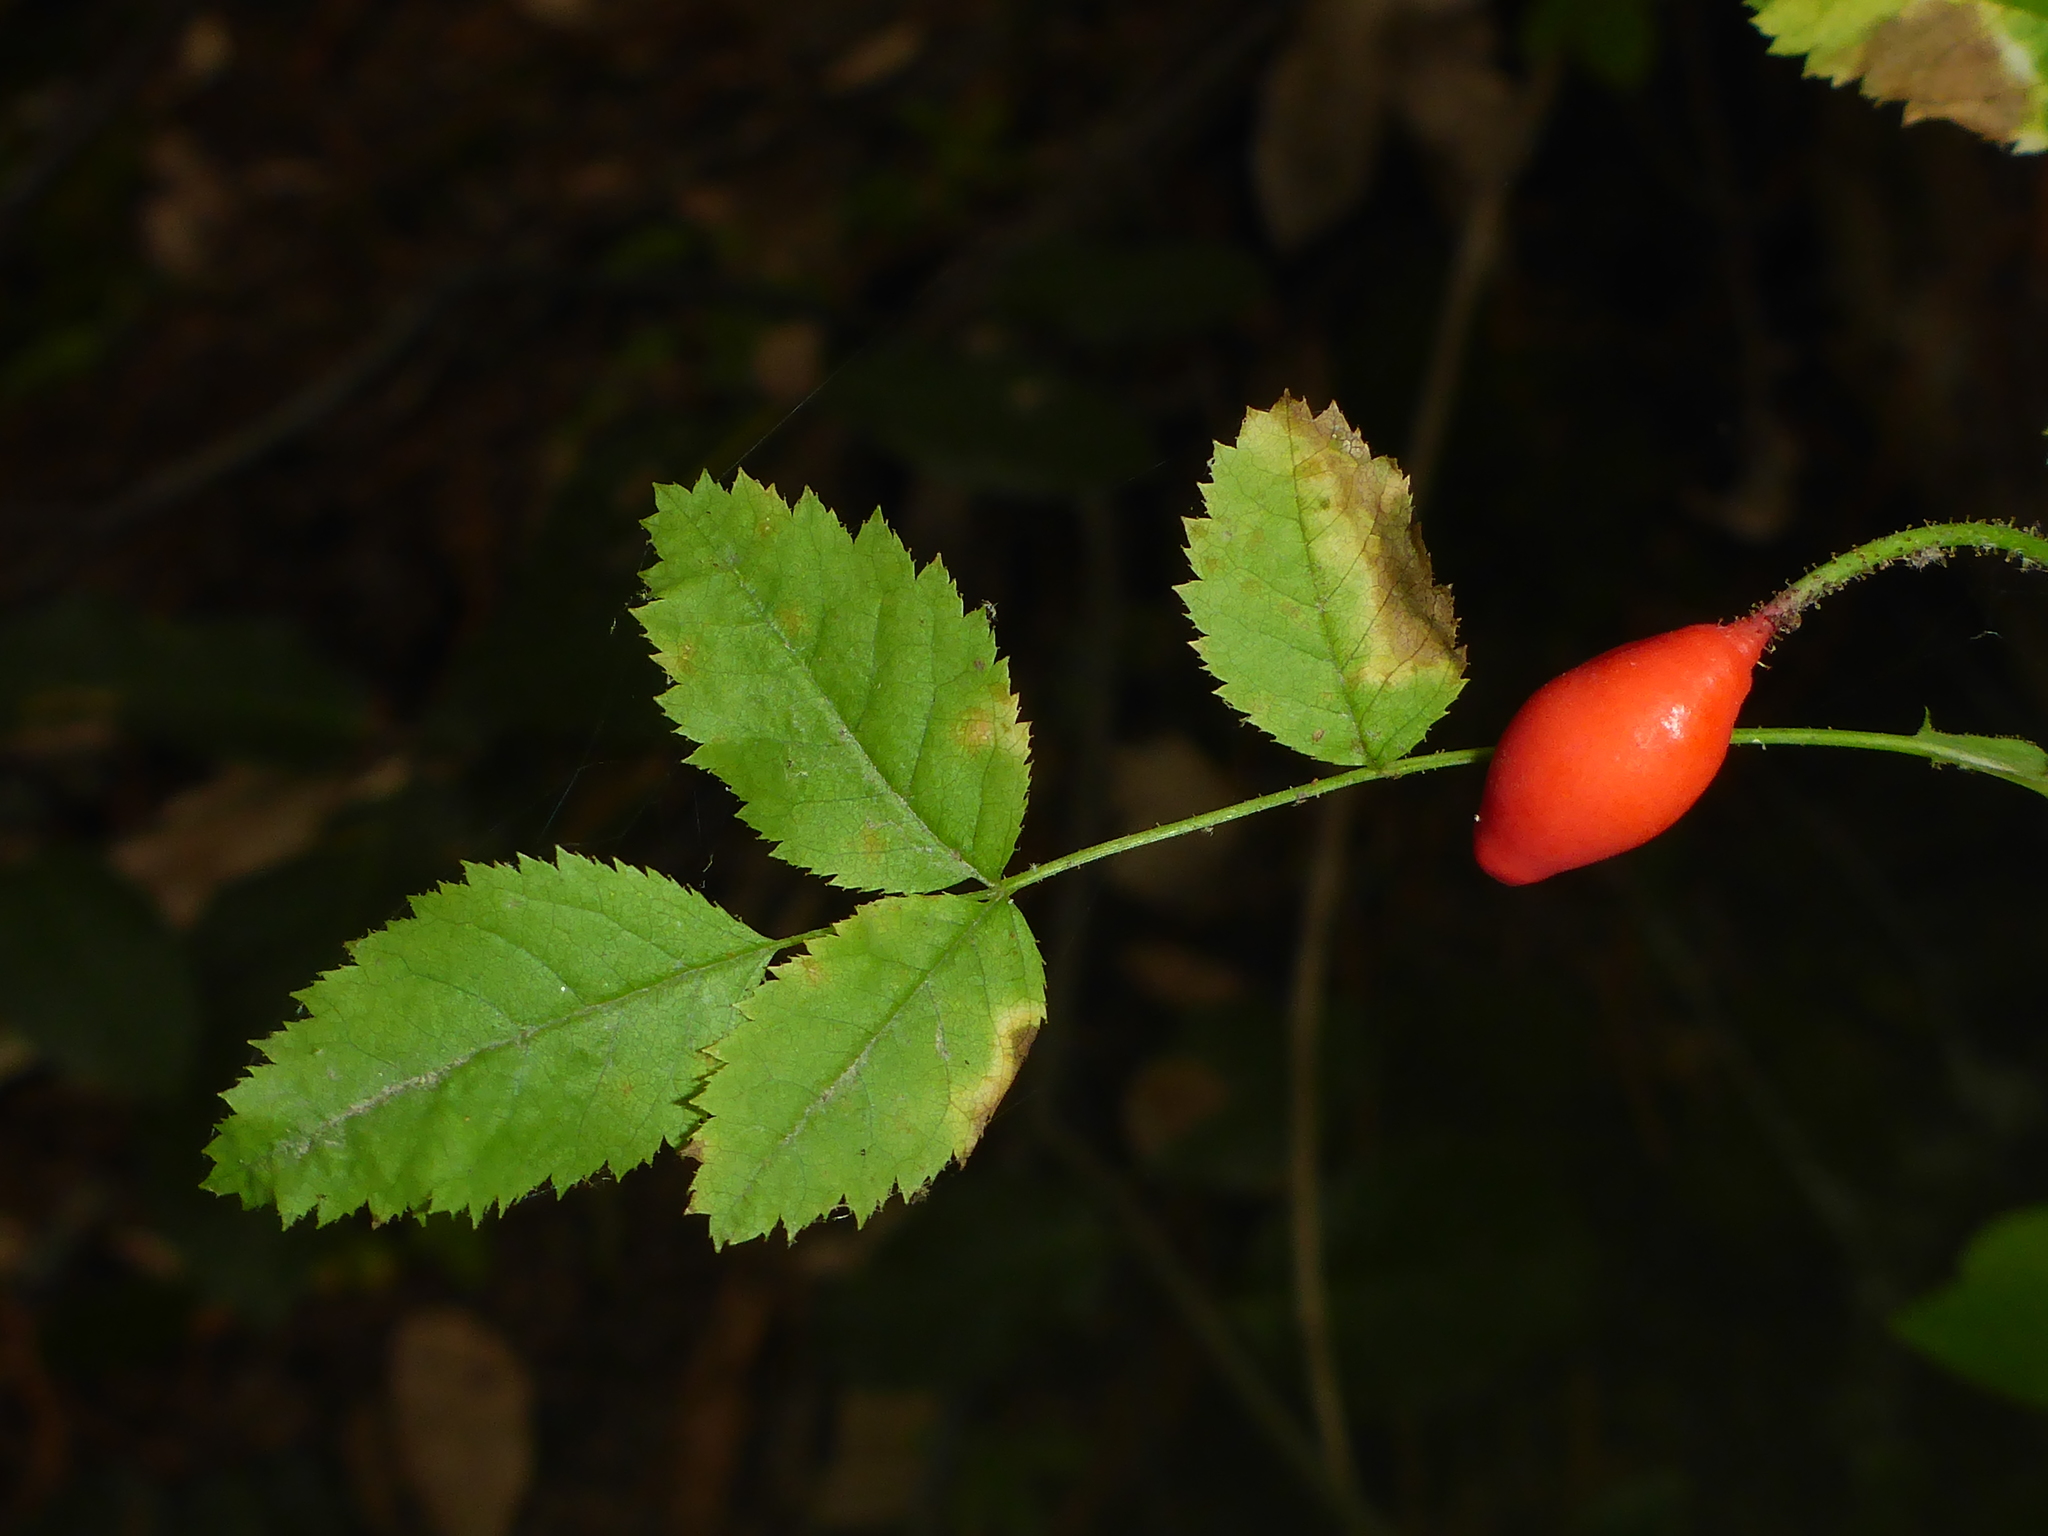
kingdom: Plantae
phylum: Tracheophyta
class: Magnoliopsida
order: Rosales
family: Rosaceae
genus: Rosa
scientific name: Rosa gymnocarpa
